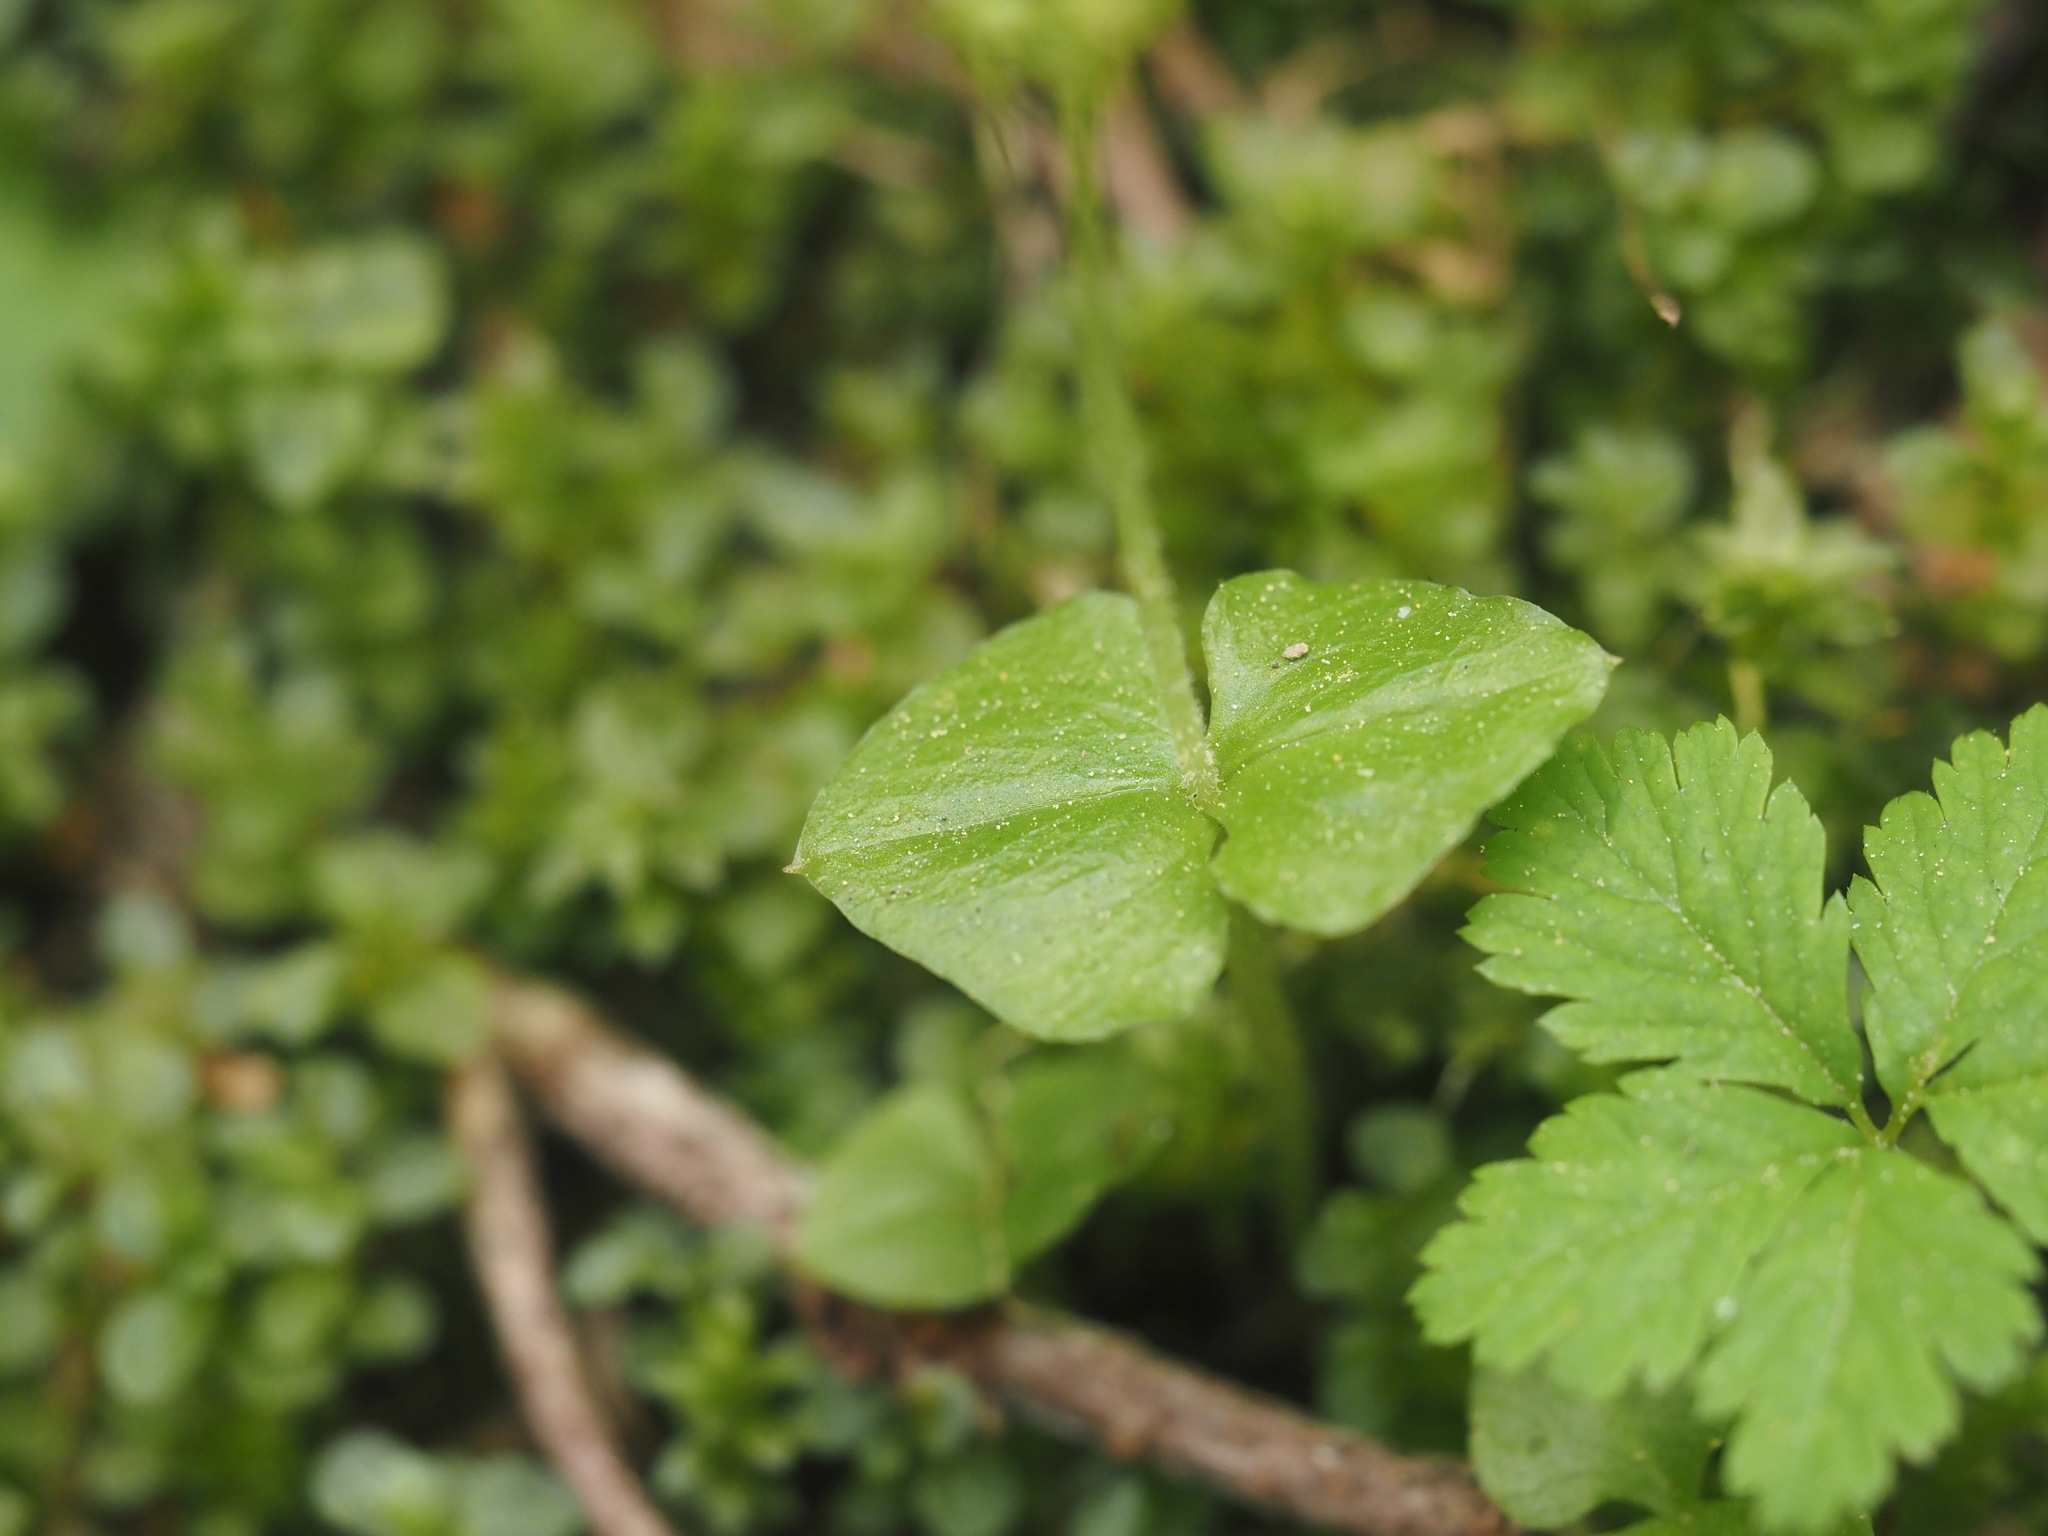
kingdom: Plantae
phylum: Tracheophyta
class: Liliopsida
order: Asparagales
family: Orchidaceae
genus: Neottia
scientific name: Neottia cordata
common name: Lesser twayblade
